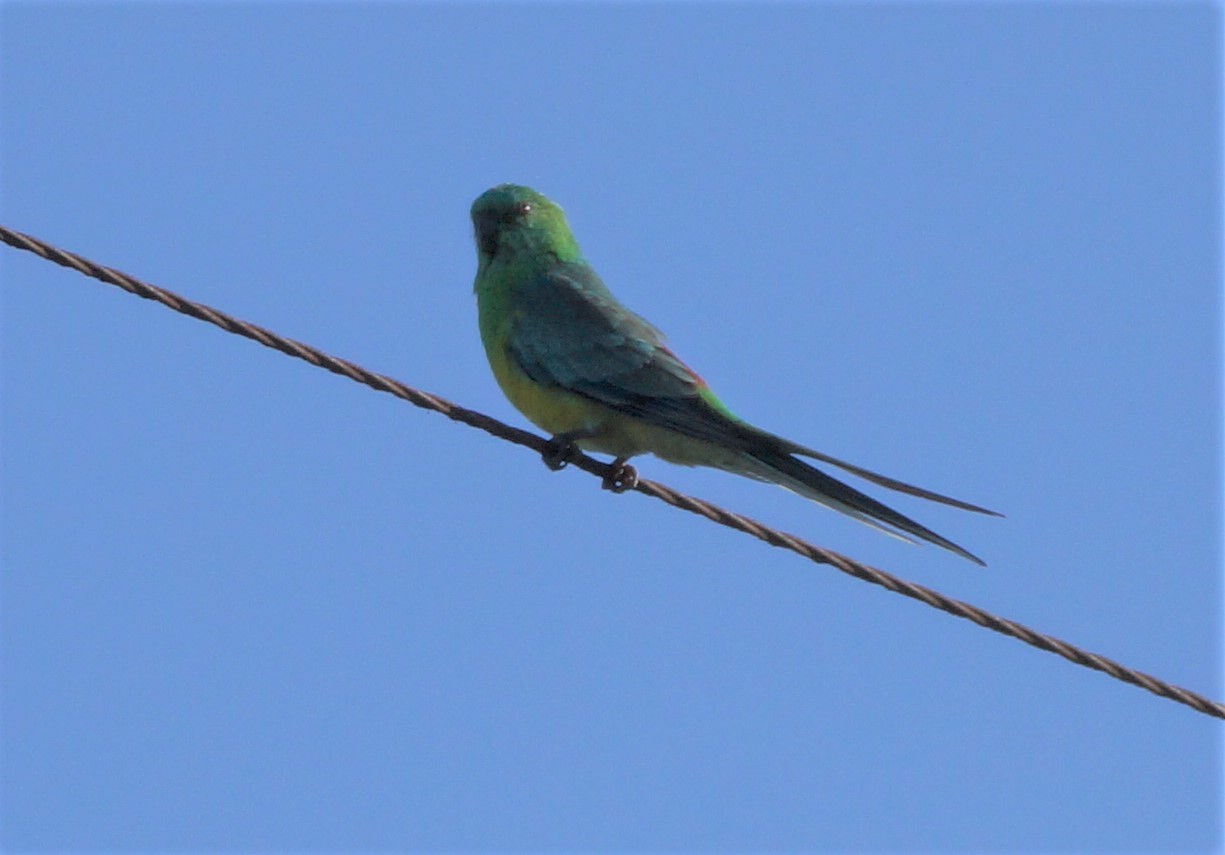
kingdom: Animalia
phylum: Chordata
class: Aves
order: Psittaciformes
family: Psittacidae
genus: Psephotus
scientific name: Psephotus haematonotus
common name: Red-rumped parrot
